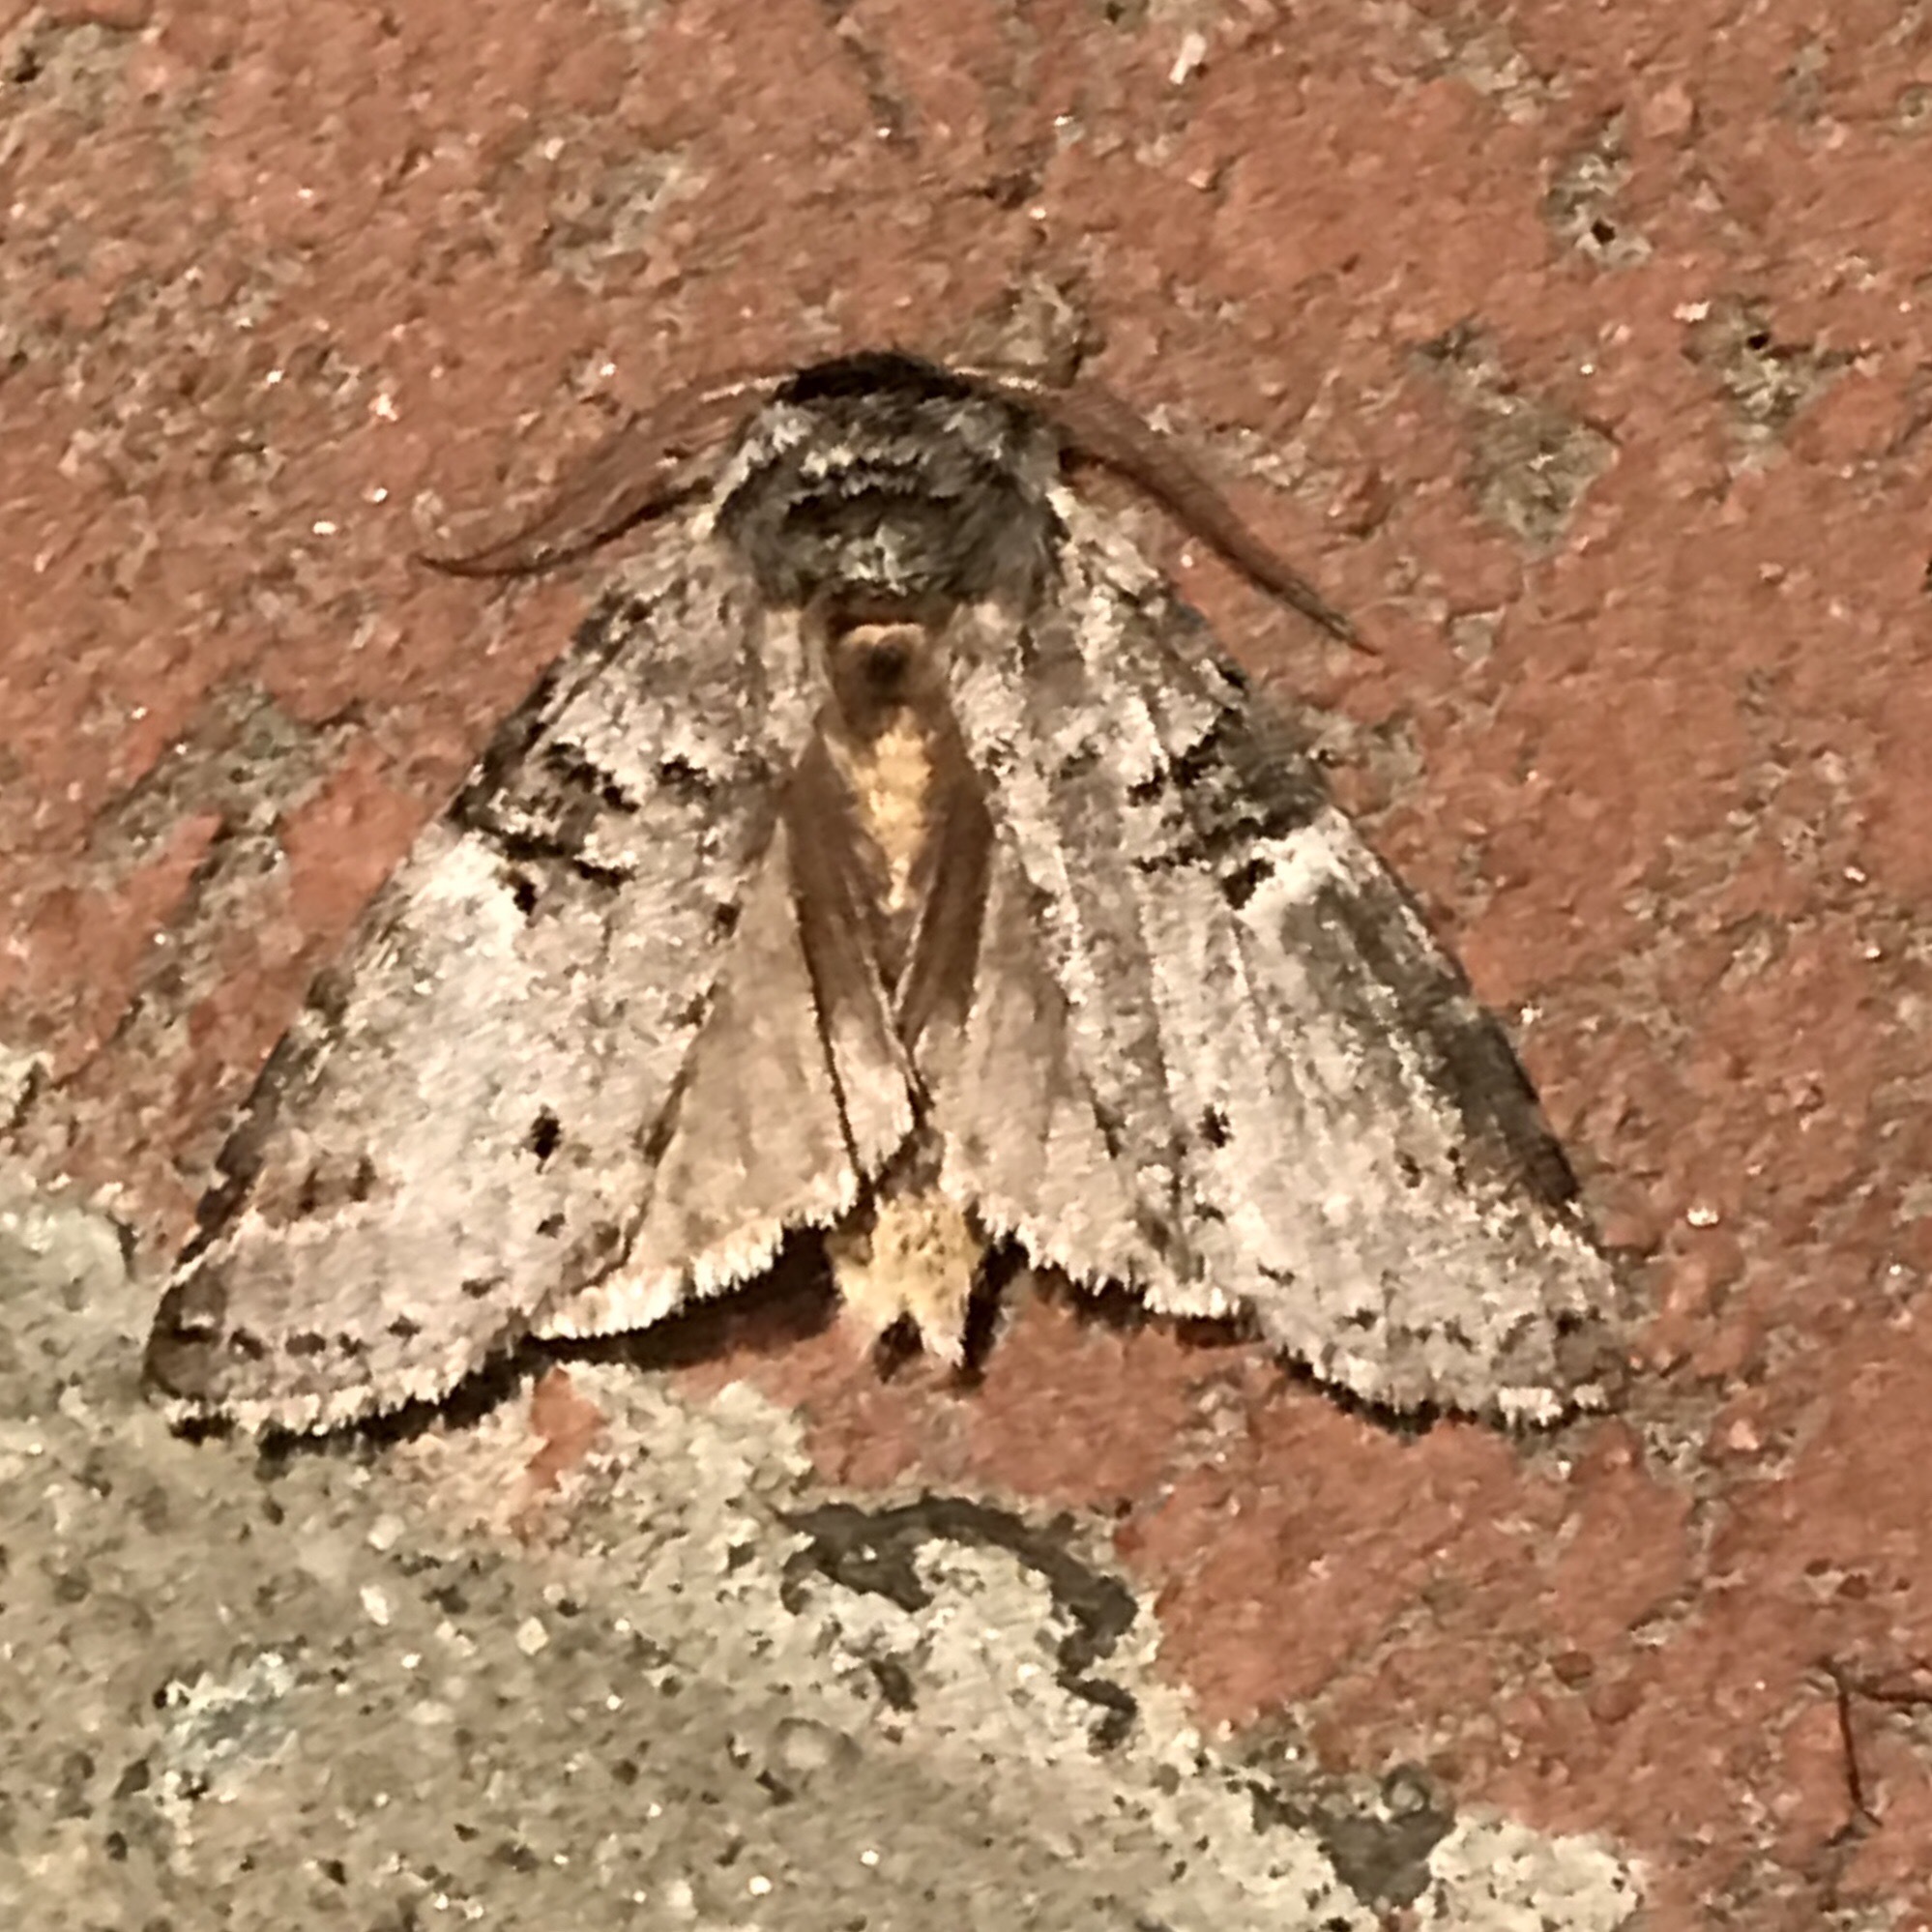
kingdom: Animalia
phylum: Arthropoda
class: Insecta
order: Lepidoptera
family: Notodontidae
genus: Ellida
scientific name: Ellida caniplaga
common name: Linden prominent
